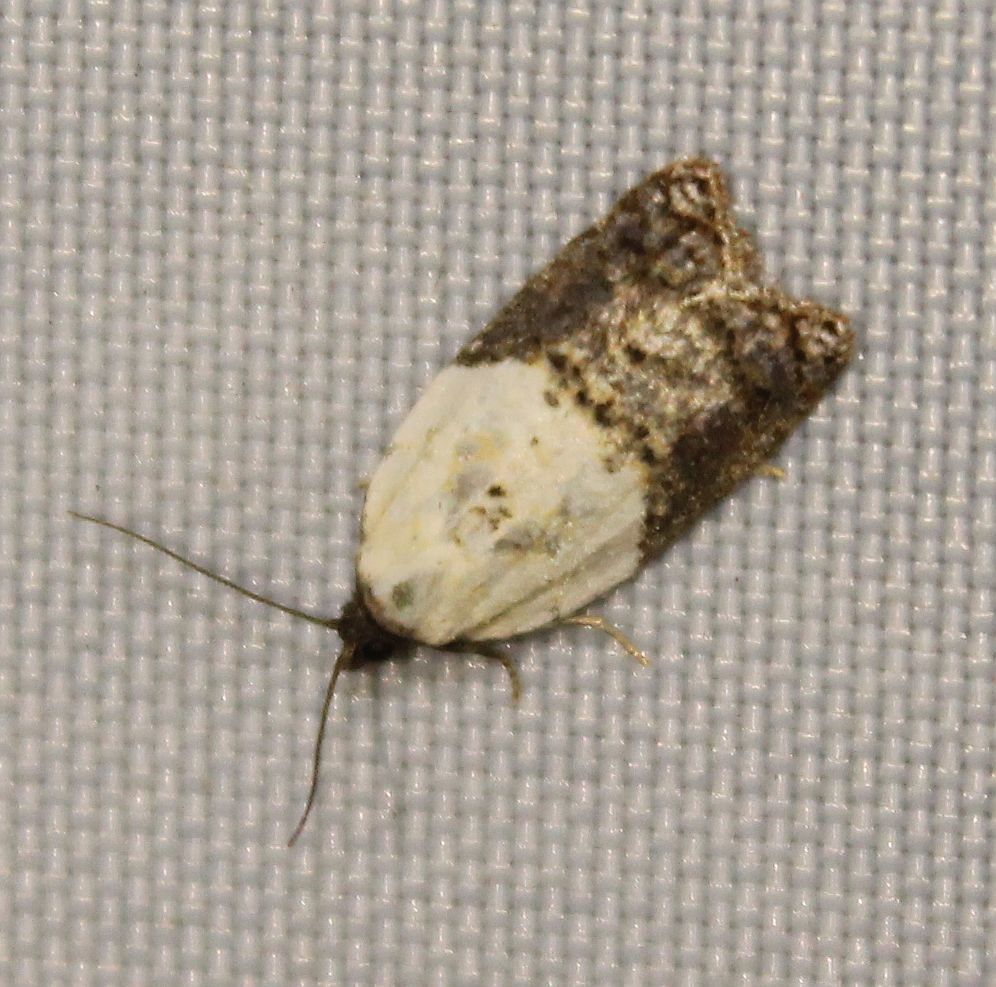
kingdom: Animalia
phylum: Arthropoda
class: Insecta
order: Lepidoptera
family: Tortricidae
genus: Acleris
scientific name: Acleris variegana
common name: Garden rose tortrix
